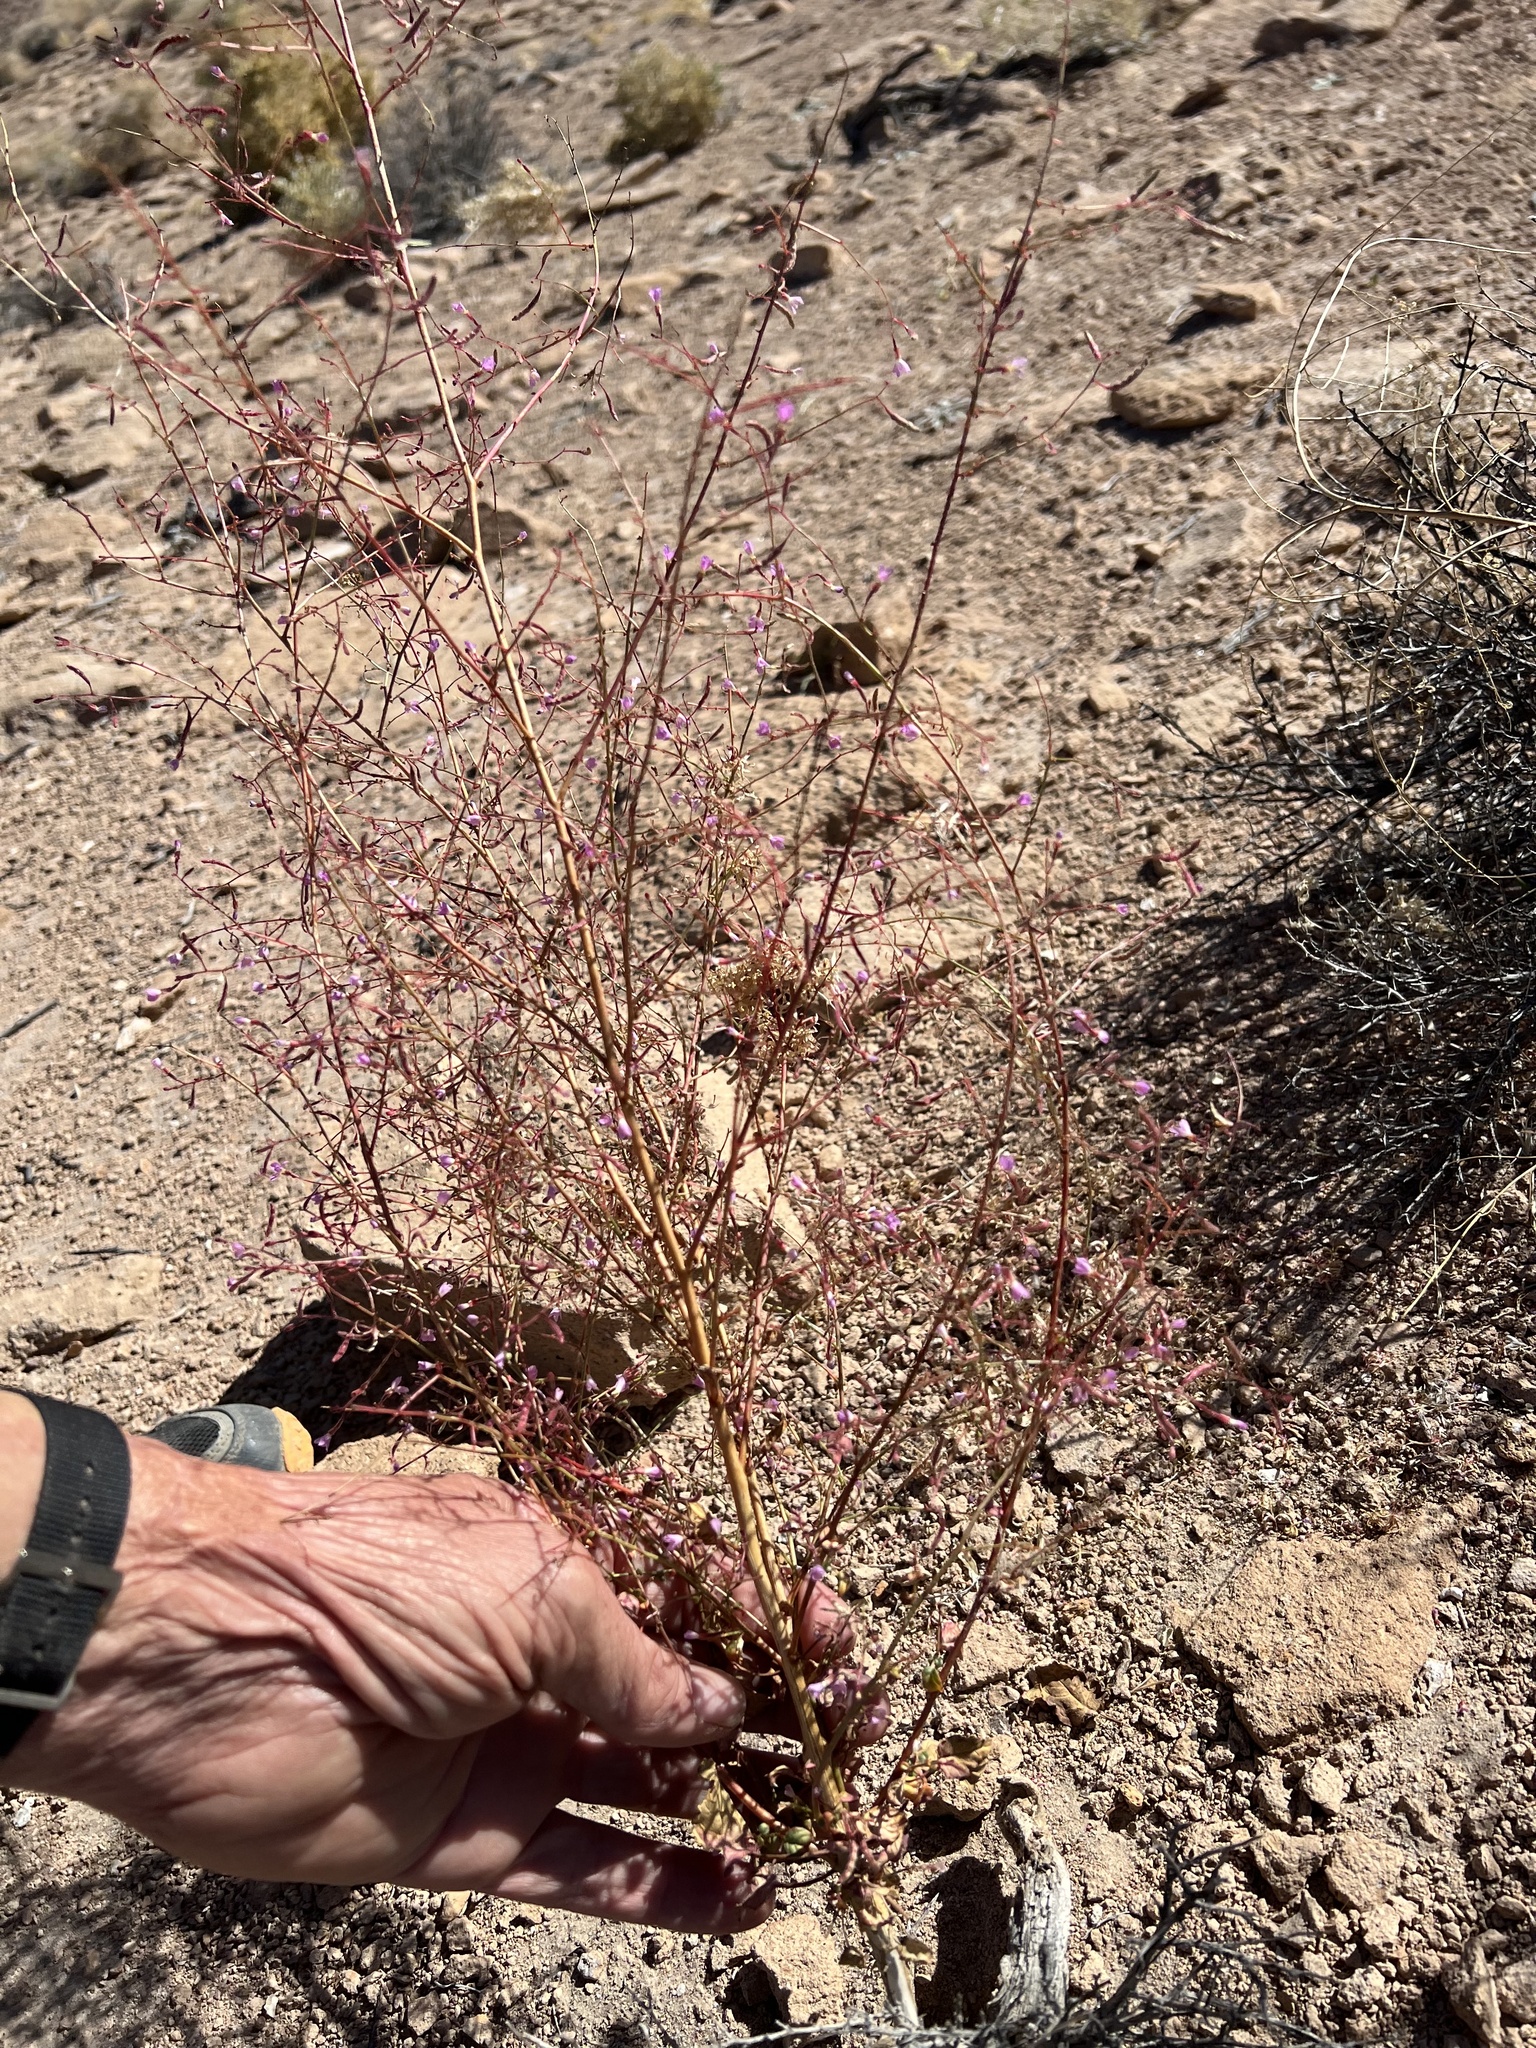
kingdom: Plantae
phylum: Tracheophyta
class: Magnoliopsida
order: Myrtales
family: Onagraceae
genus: Chylismia
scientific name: Chylismia heterochroma
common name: Shockley's evening primrose
